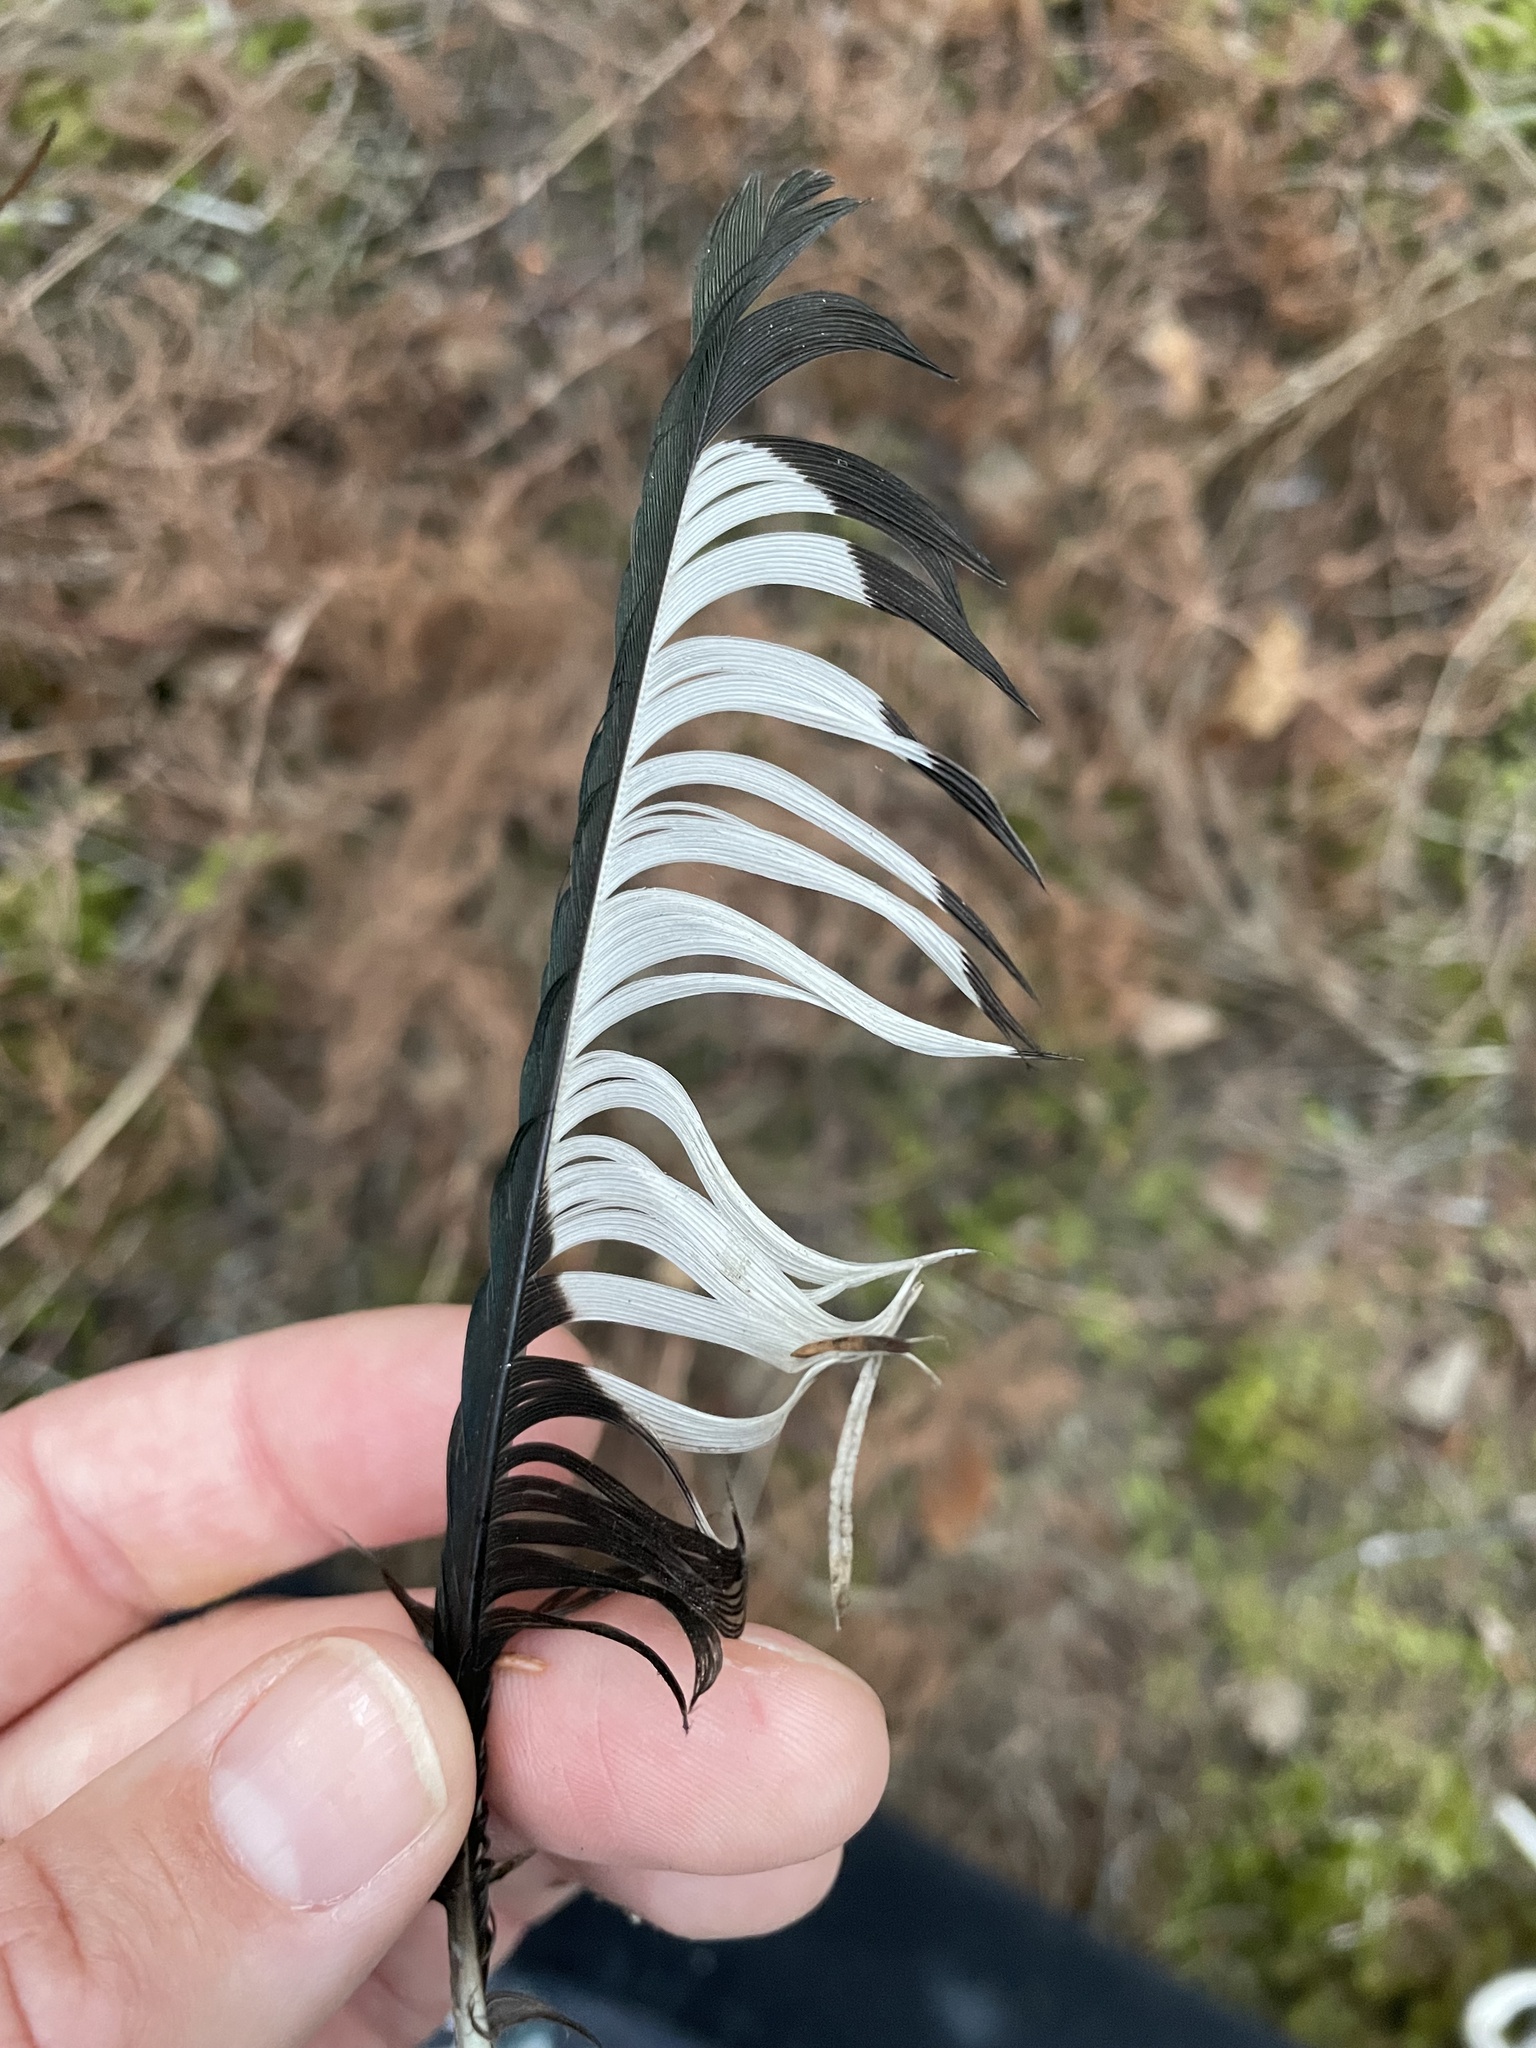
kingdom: Animalia
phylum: Chordata
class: Aves
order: Passeriformes
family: Corvidae
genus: Pica
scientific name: Pica hudsonia
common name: Black-billed magpie
